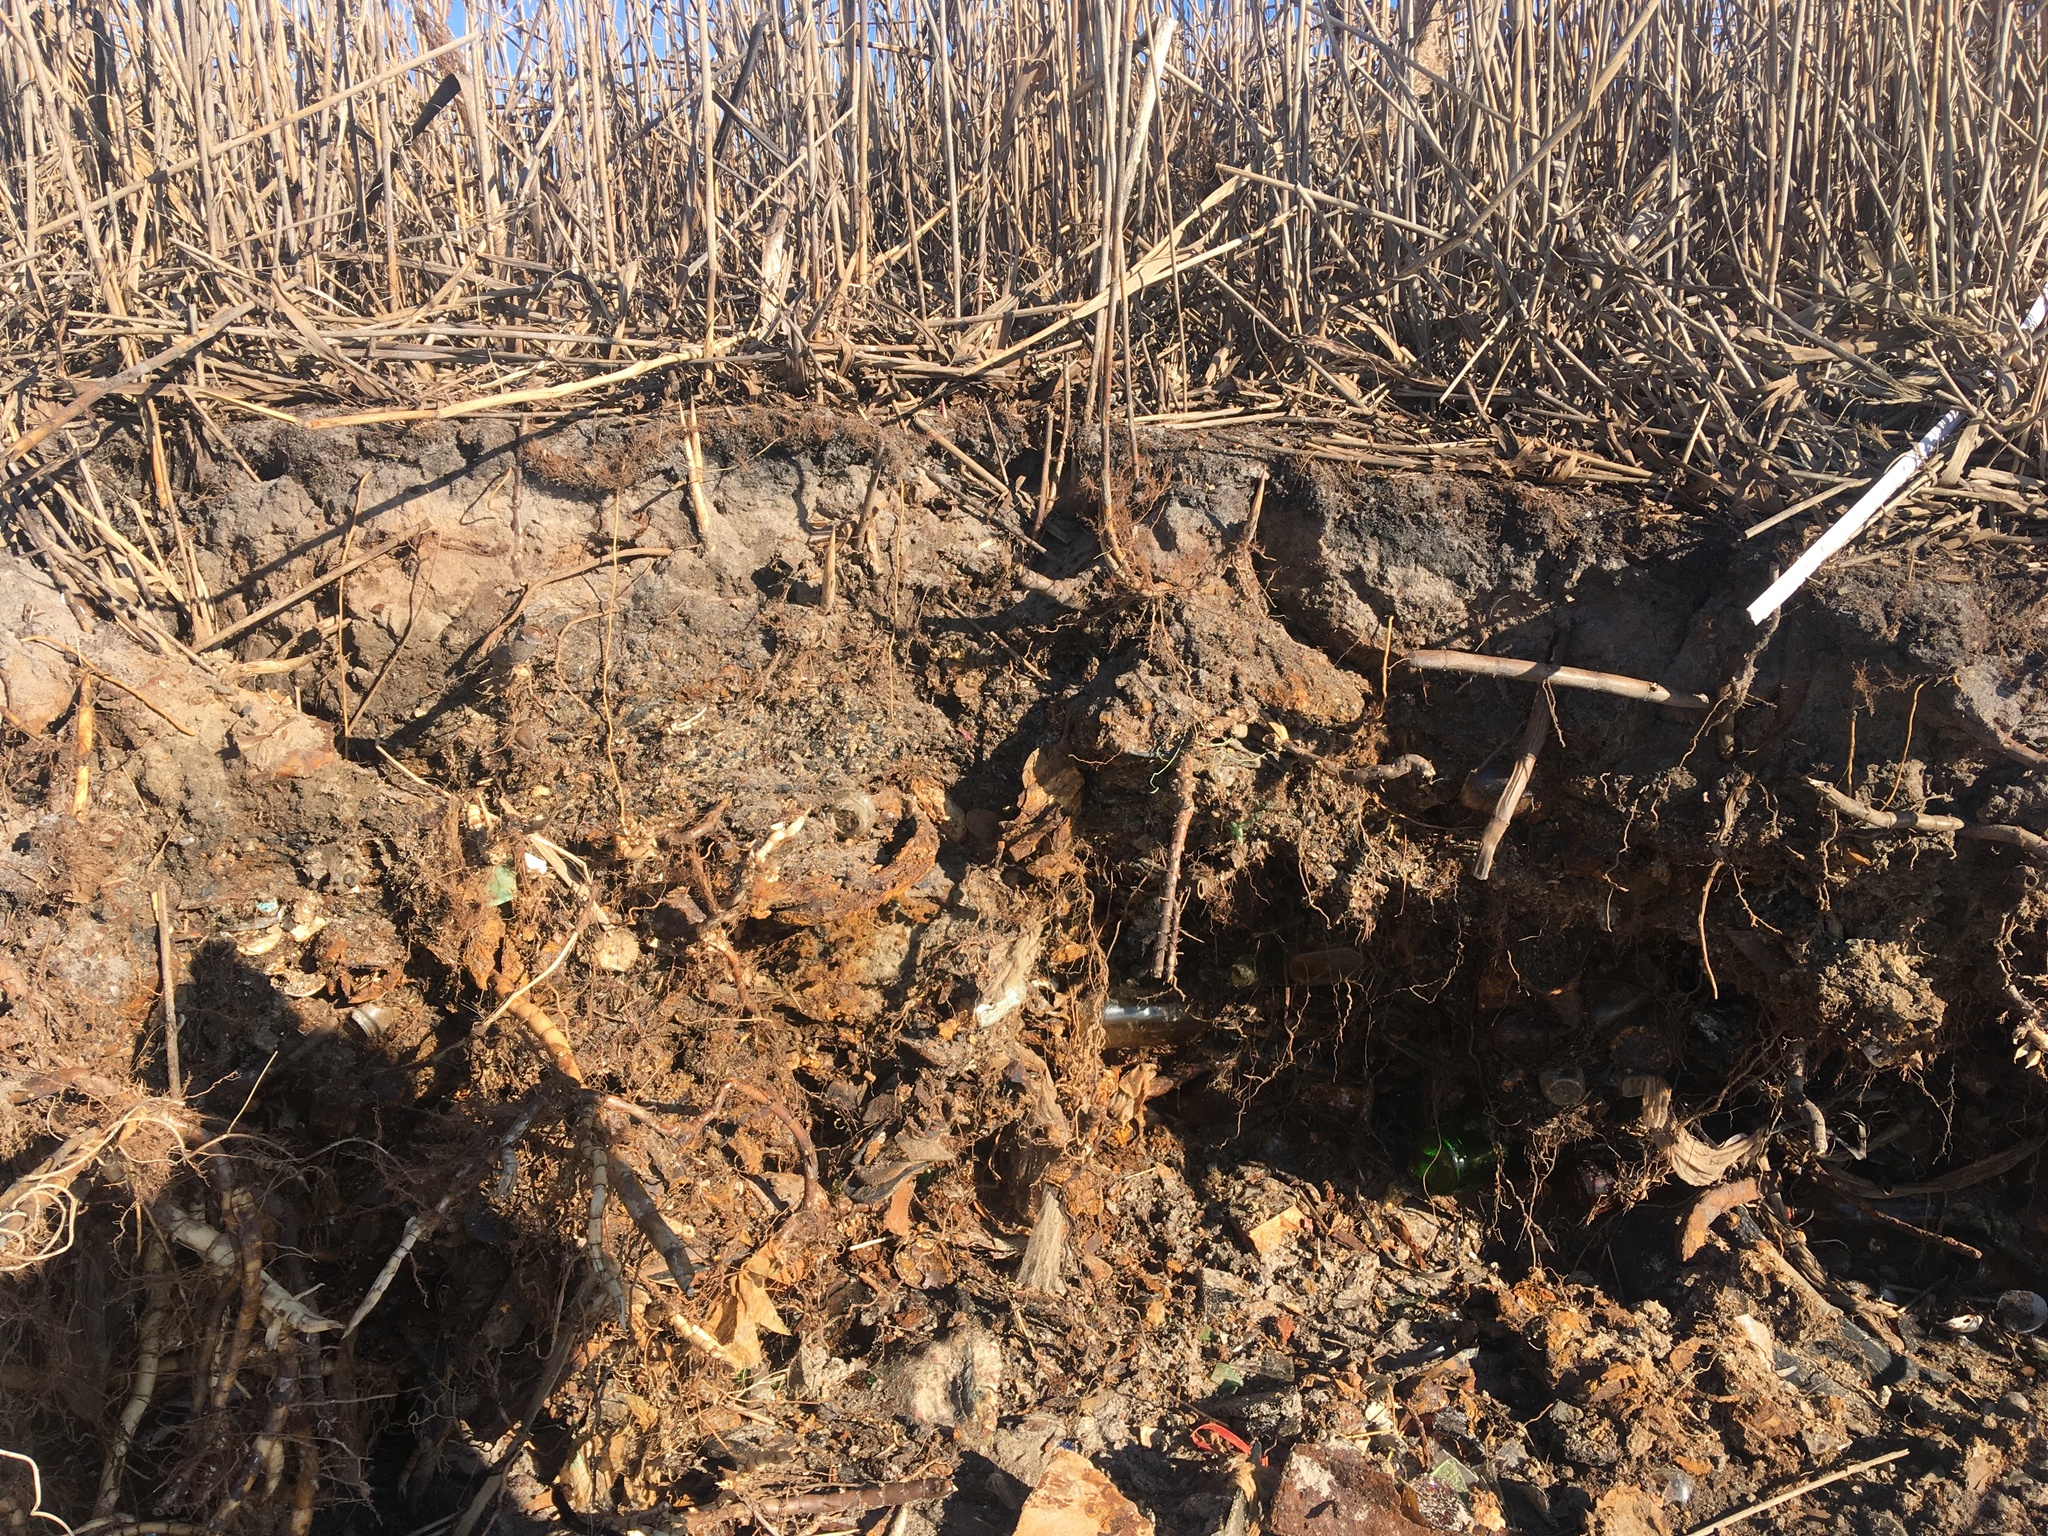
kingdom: Plantae
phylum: Tracheophyta
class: Liliopsida
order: Poales
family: Poaceae
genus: Phragmites
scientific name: Phragmites australis
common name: Common reed
